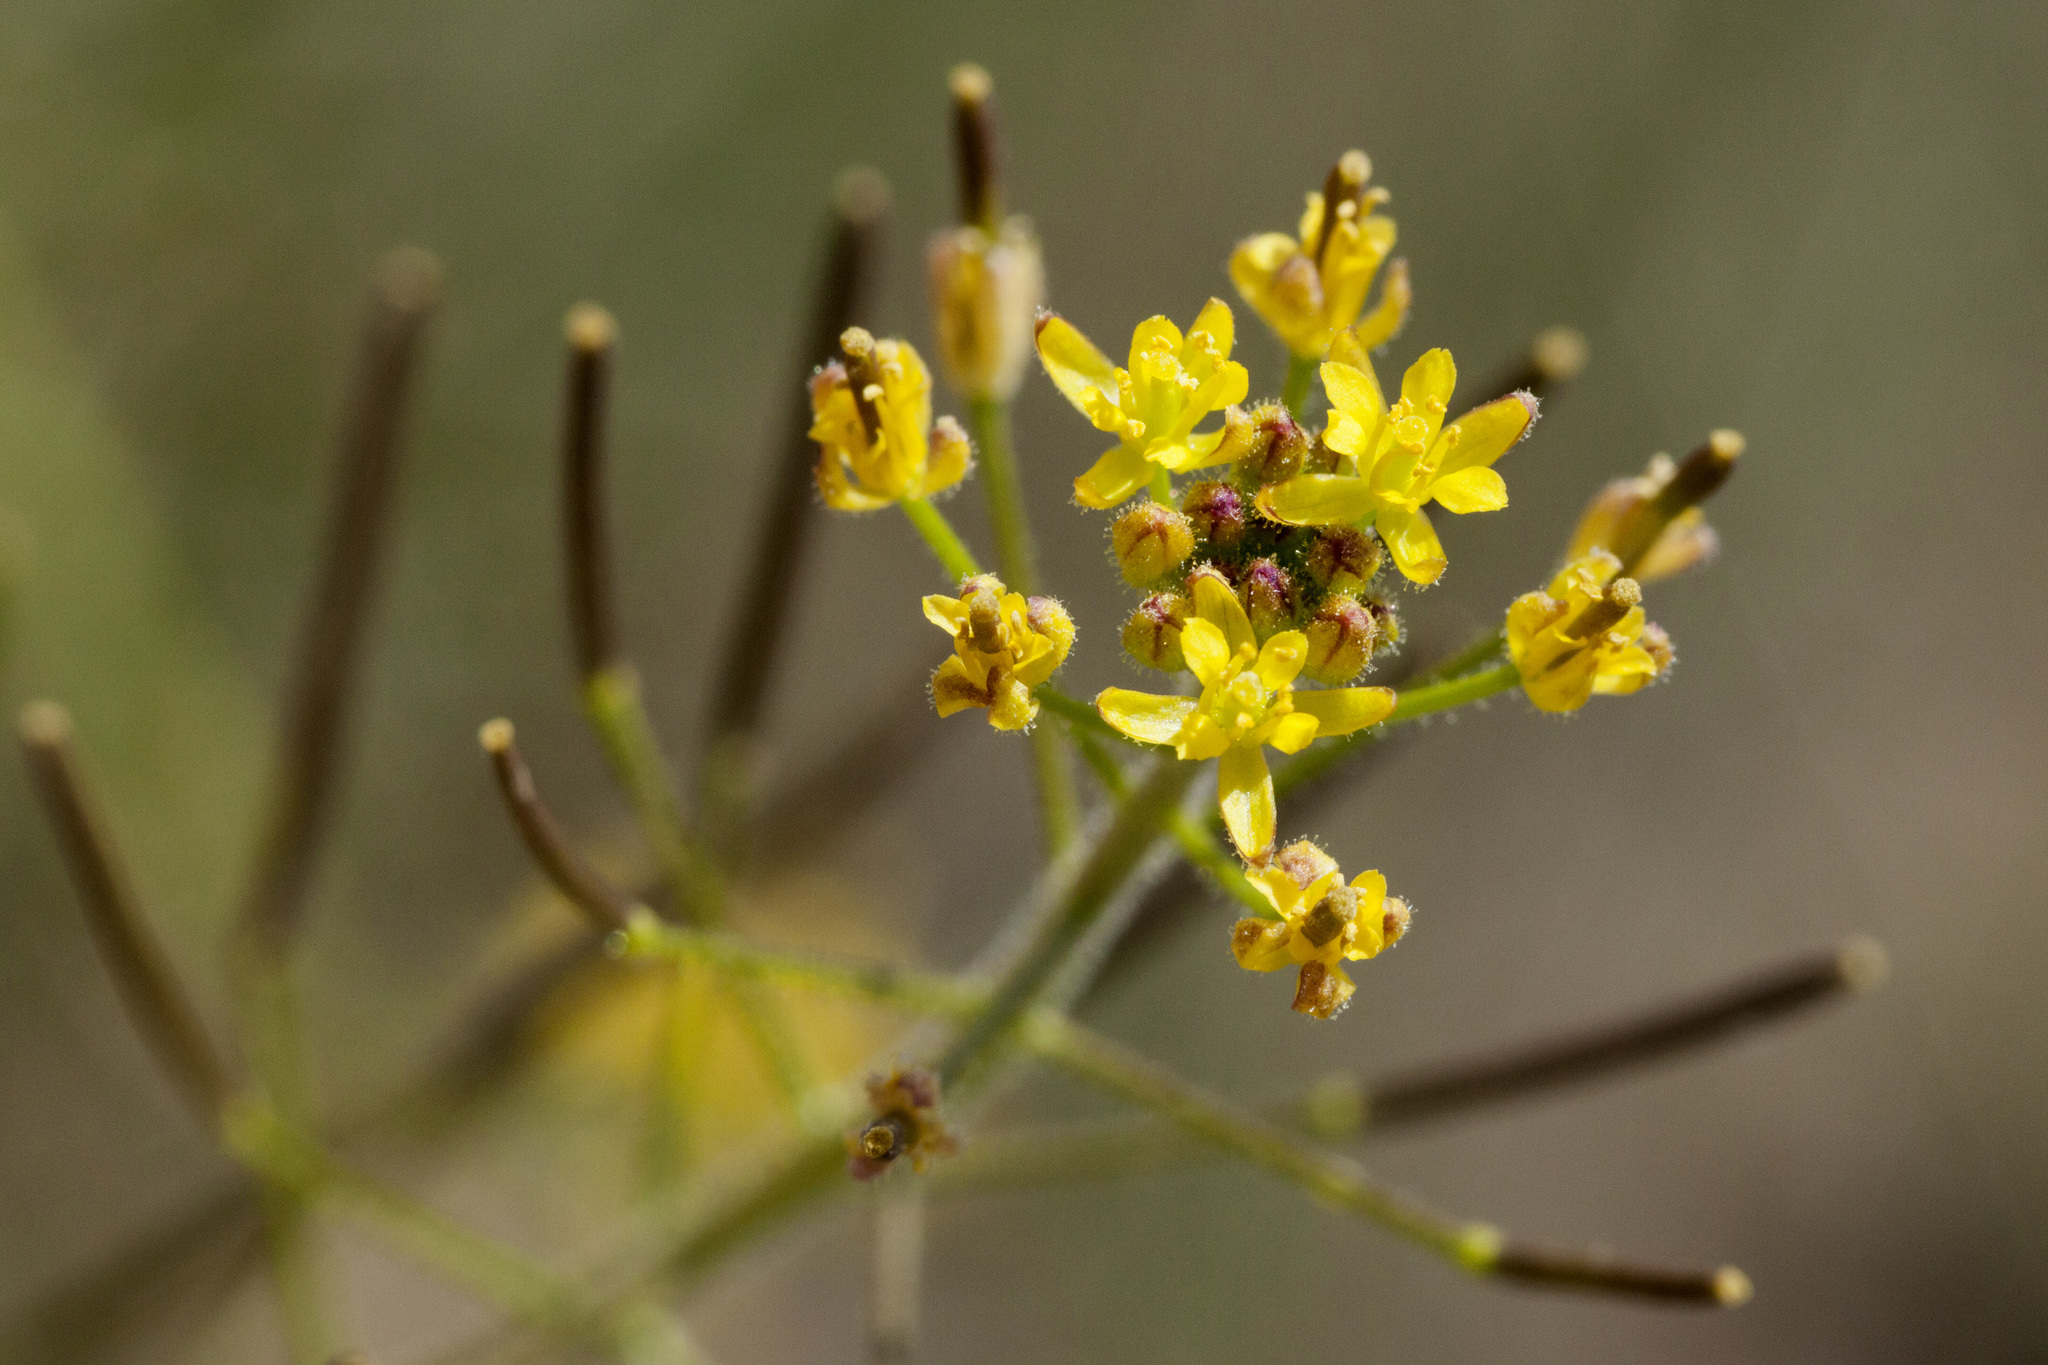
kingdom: Plantae
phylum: Tracheophyta
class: Magnoliopsida
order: Brassicales
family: Brassicaceae
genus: Descurainia
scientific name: Descurainia adenophora
